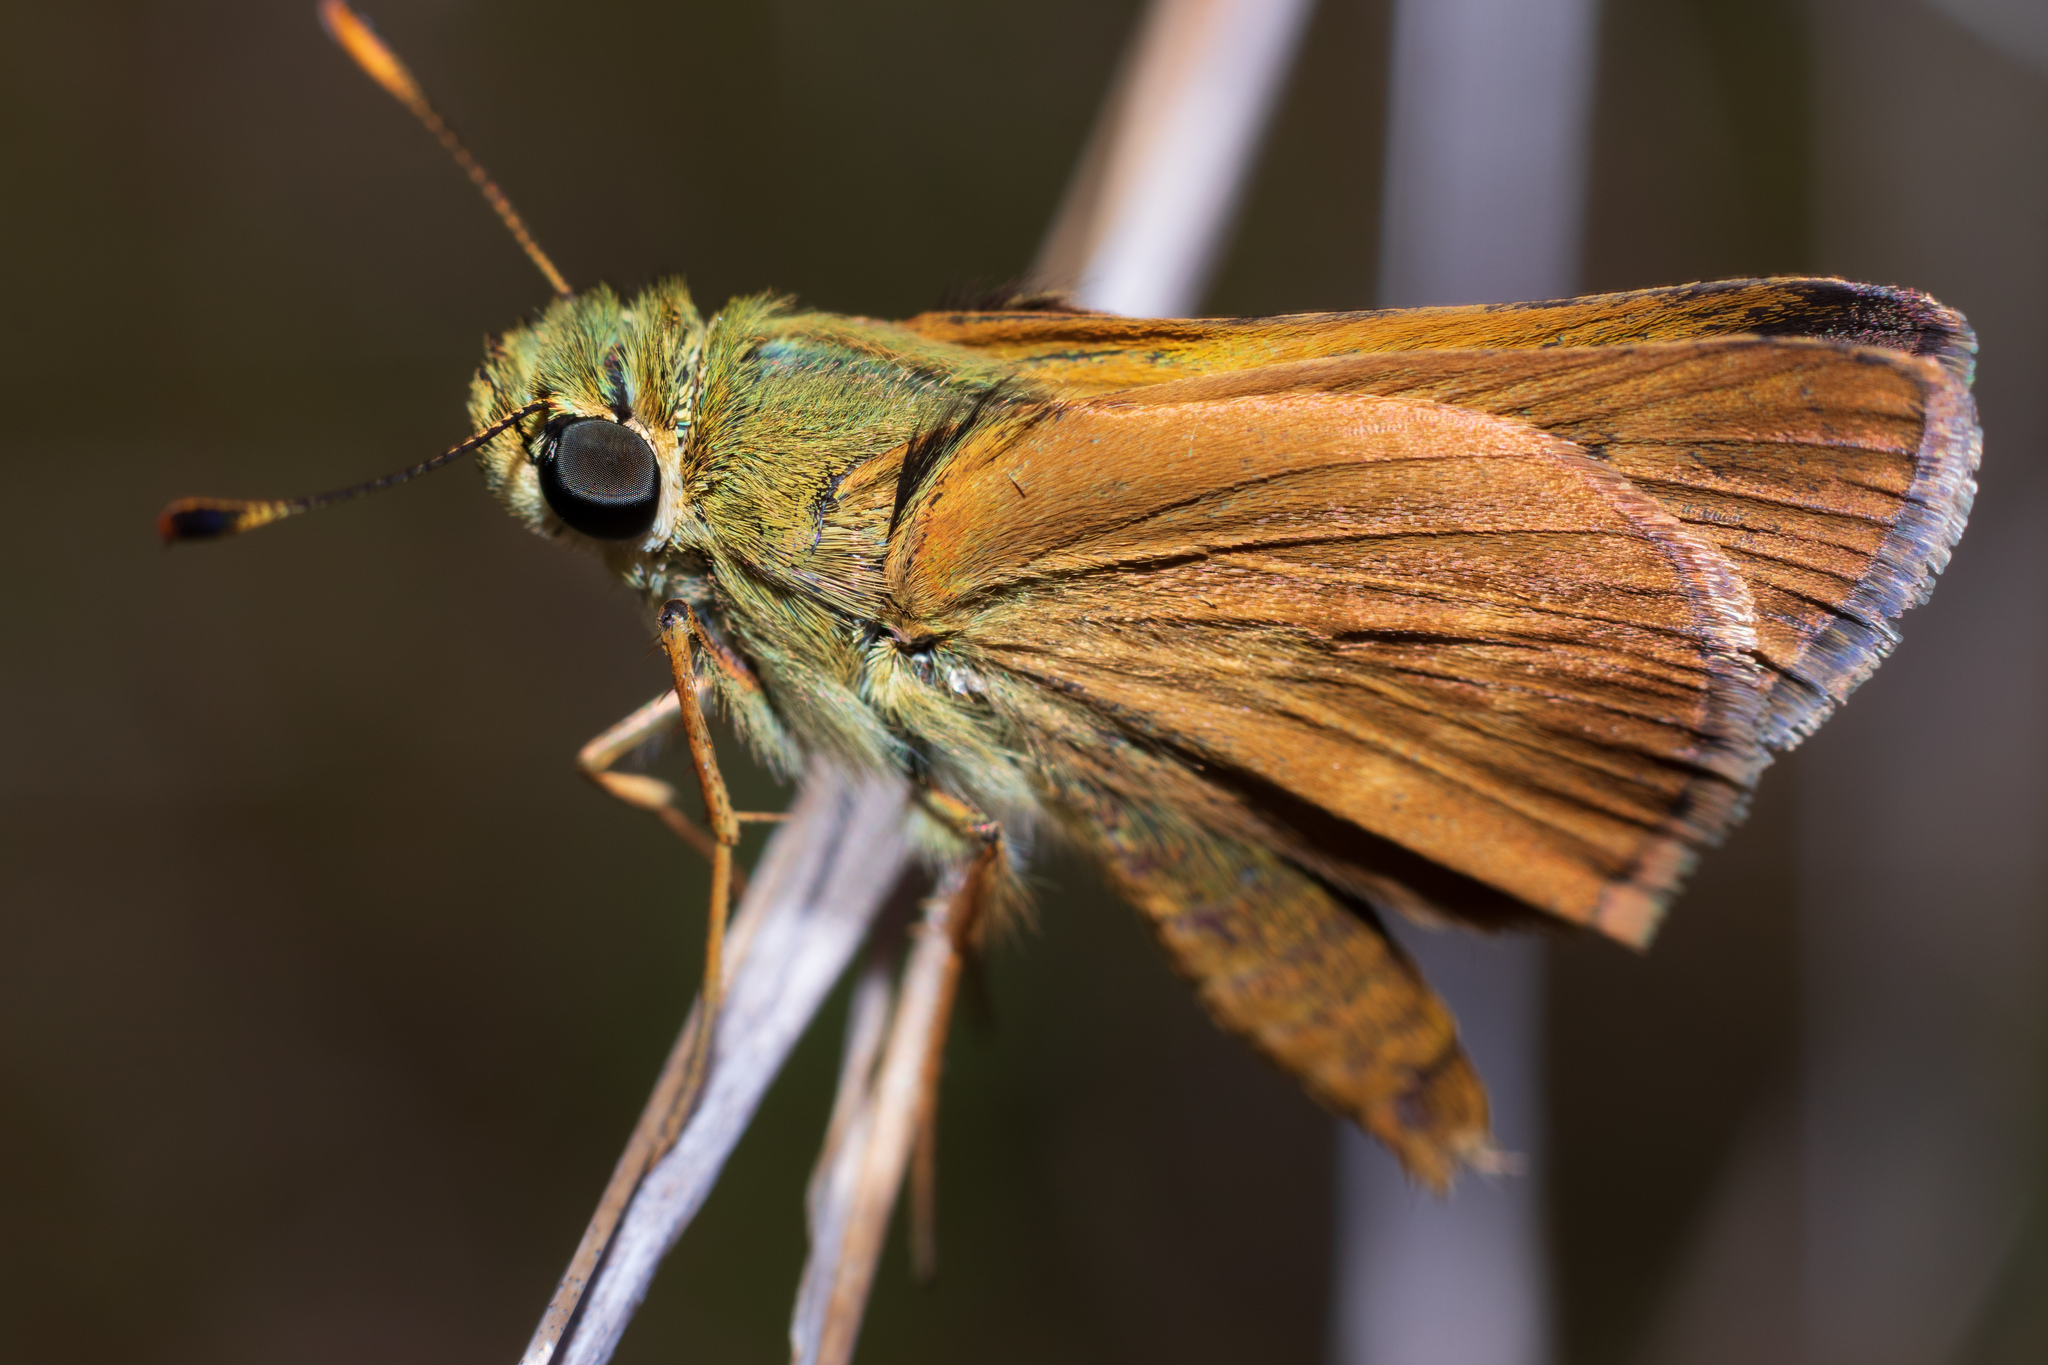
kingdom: Animalia
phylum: Arthropoda
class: Insecta
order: Lepidoptera
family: Hesperiidae
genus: Polites
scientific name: Polites otho
